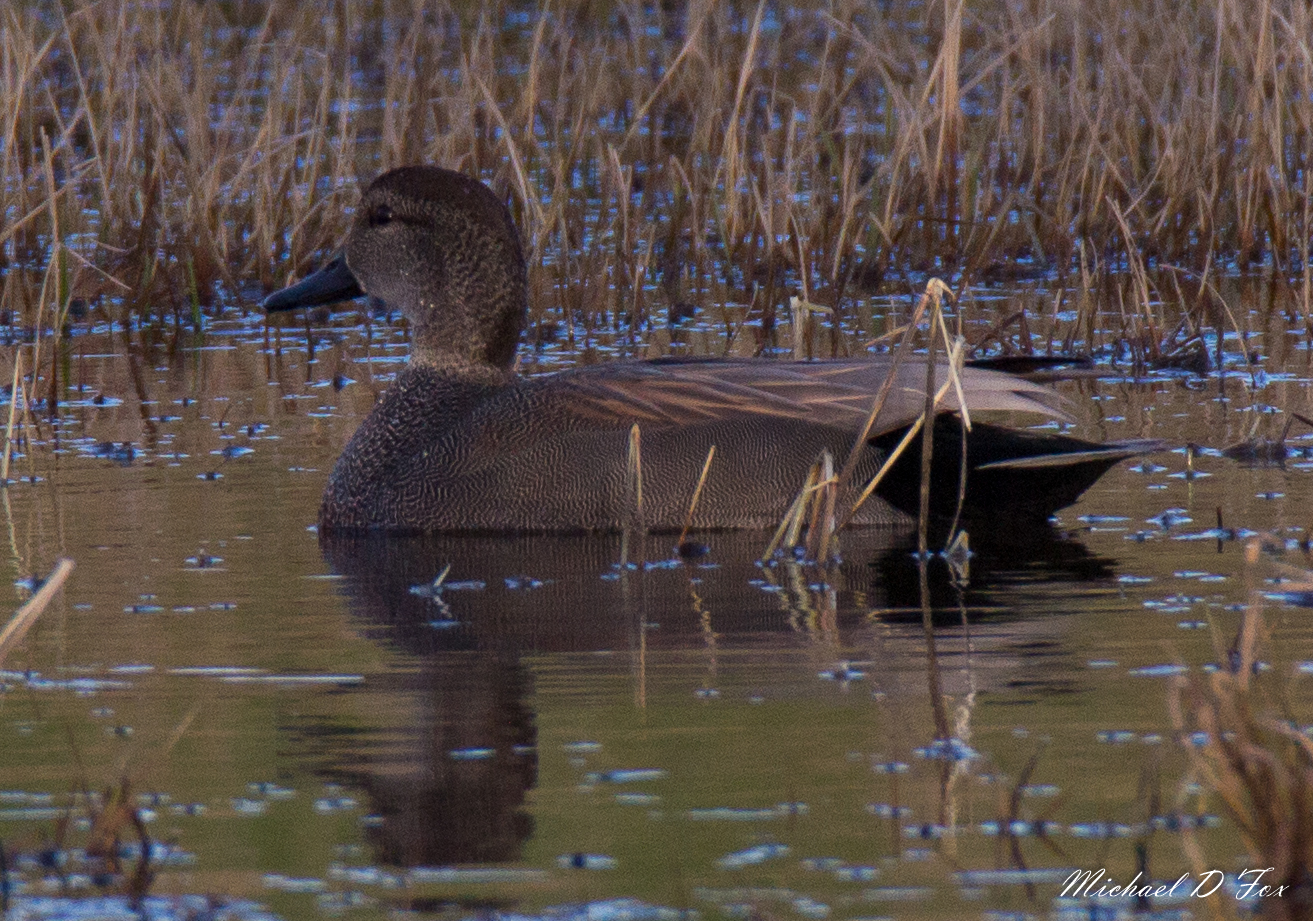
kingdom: Animalia
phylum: Chordata
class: Aves
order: Anseriformes
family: Anatidae
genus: Mareca
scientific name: Mareca strepera
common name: Gadwall
